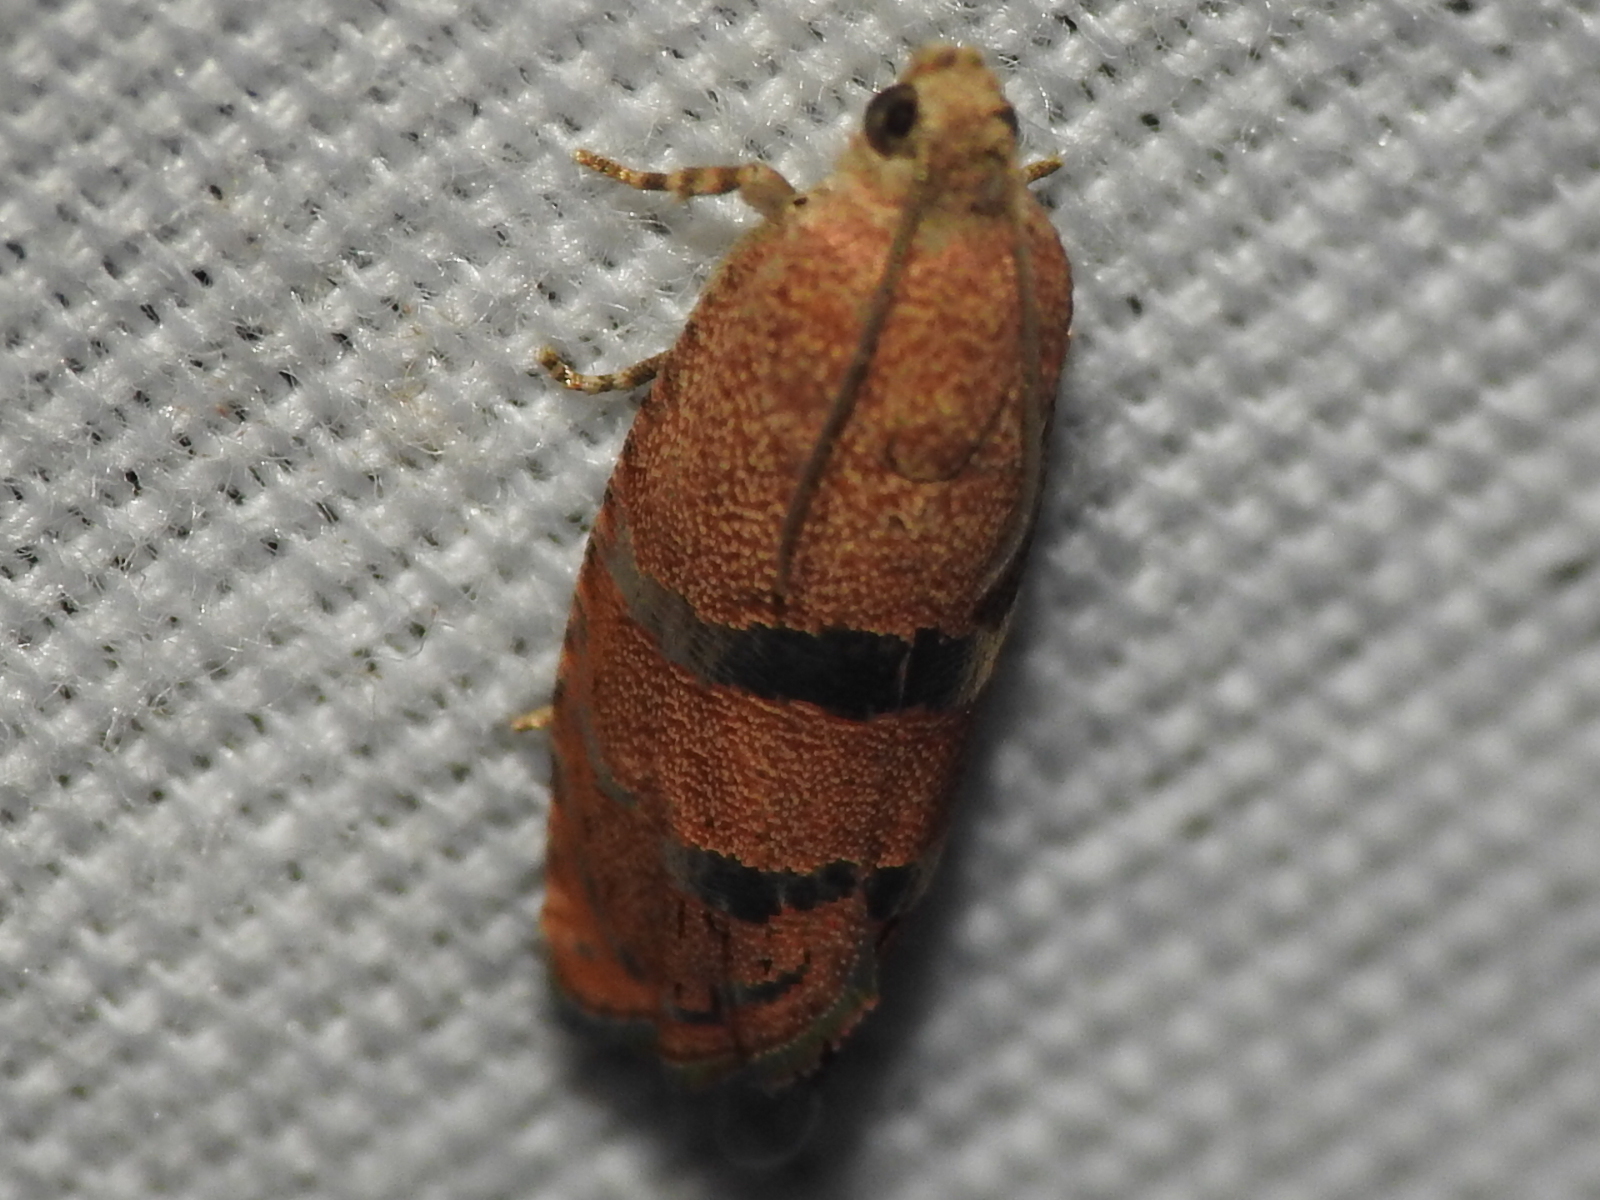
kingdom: Animalia
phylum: Arthropoda
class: Insecta
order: Lepidoptera
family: Tortricidae
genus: Cydia
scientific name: Cydia latiferreana
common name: Filbertworm moth
